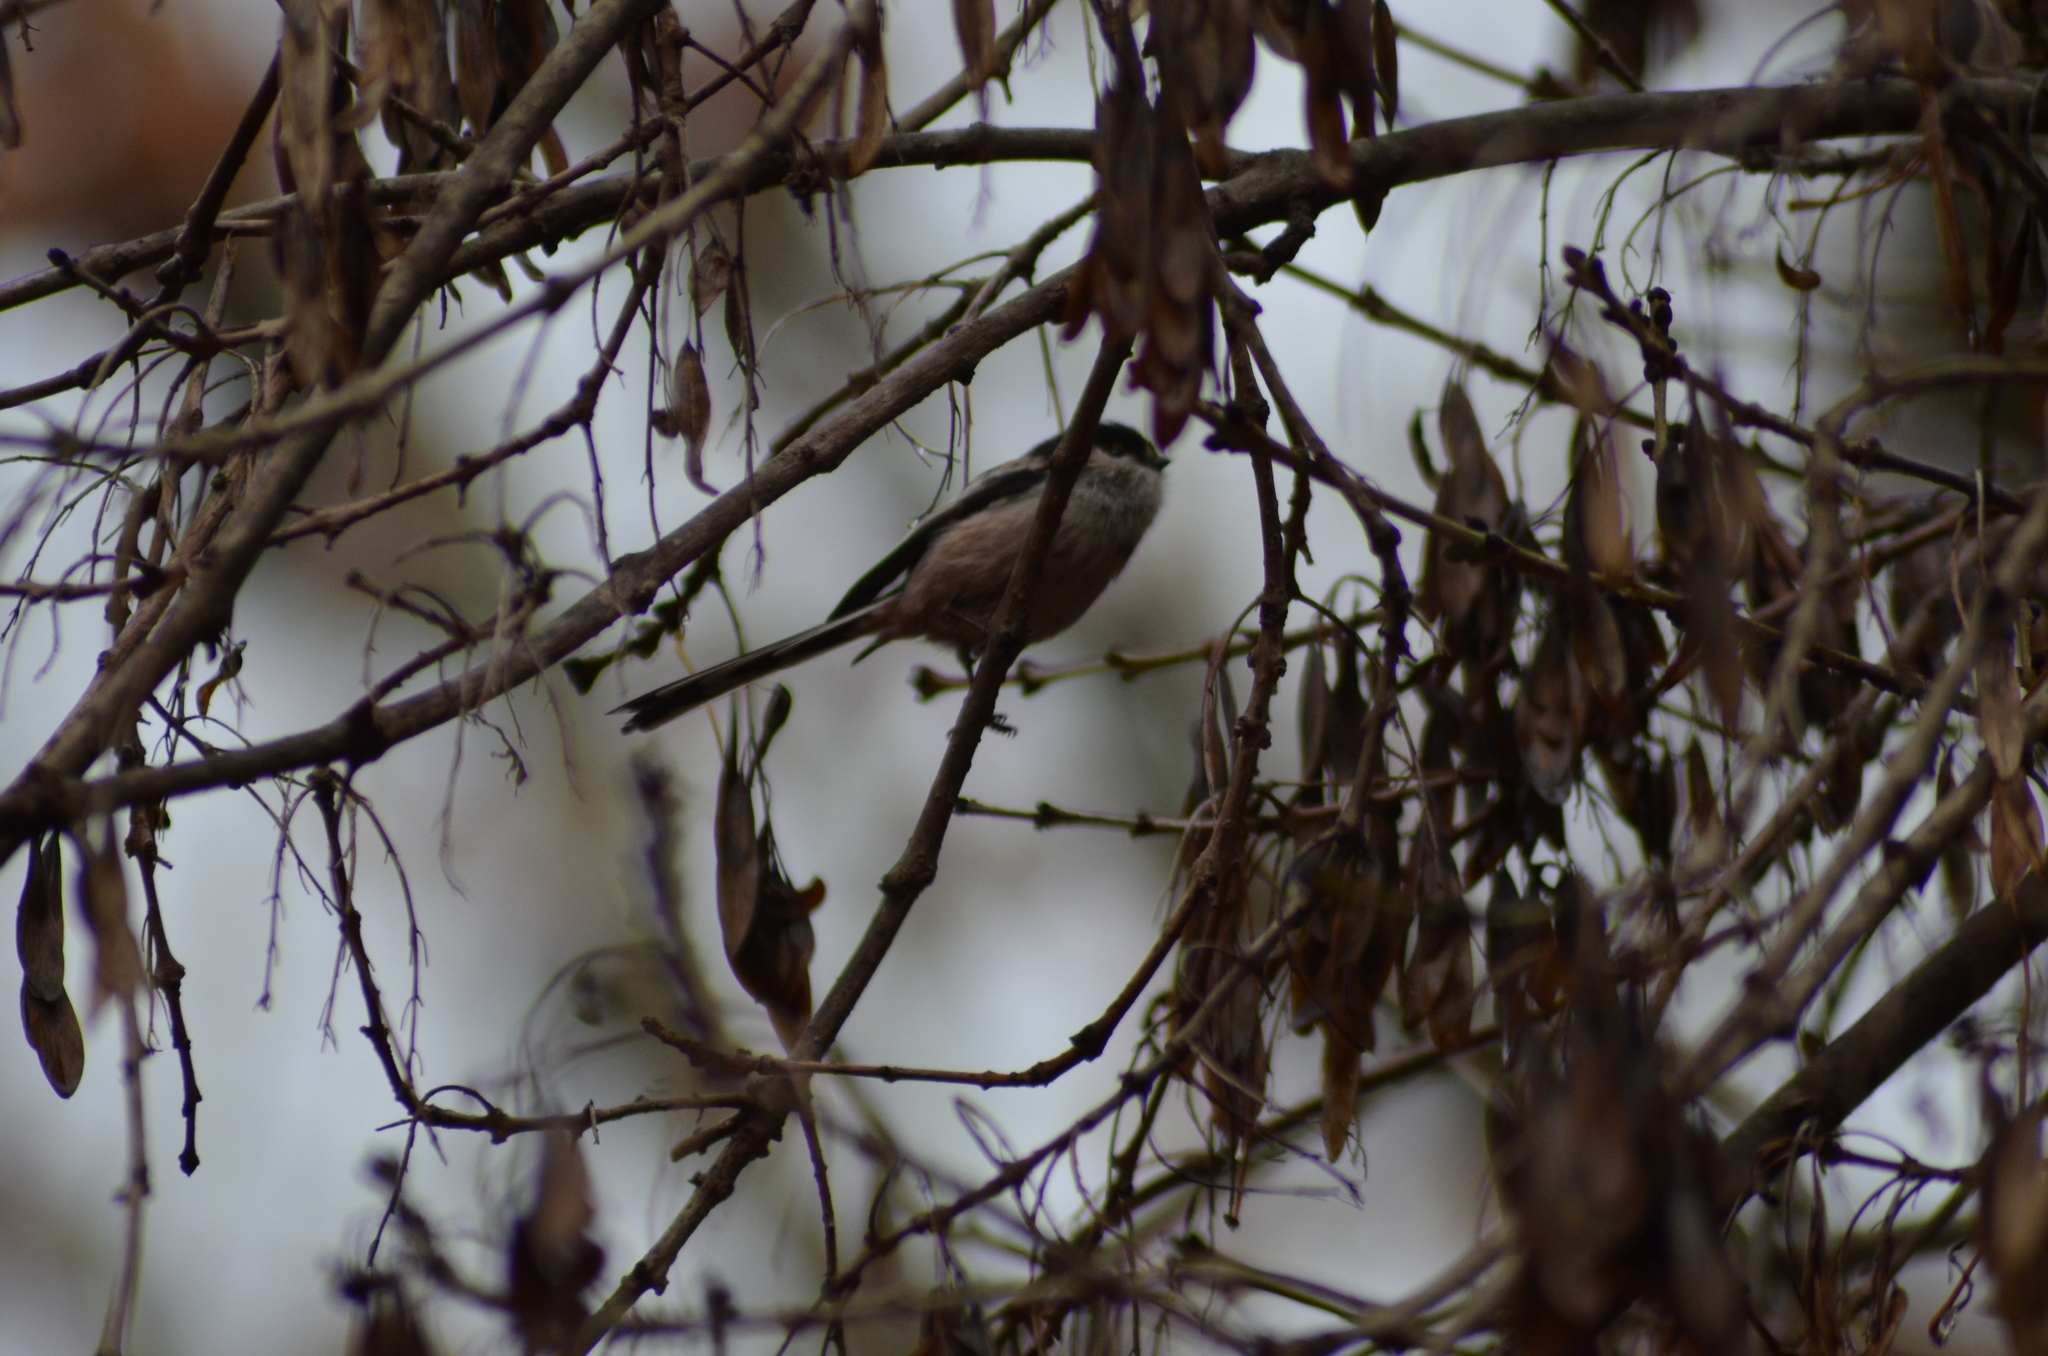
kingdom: Animalia
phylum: Chordata
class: Aves
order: Passeriformes
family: Aegithalidae
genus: Aegithalos
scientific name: Aegithalos caudatus
